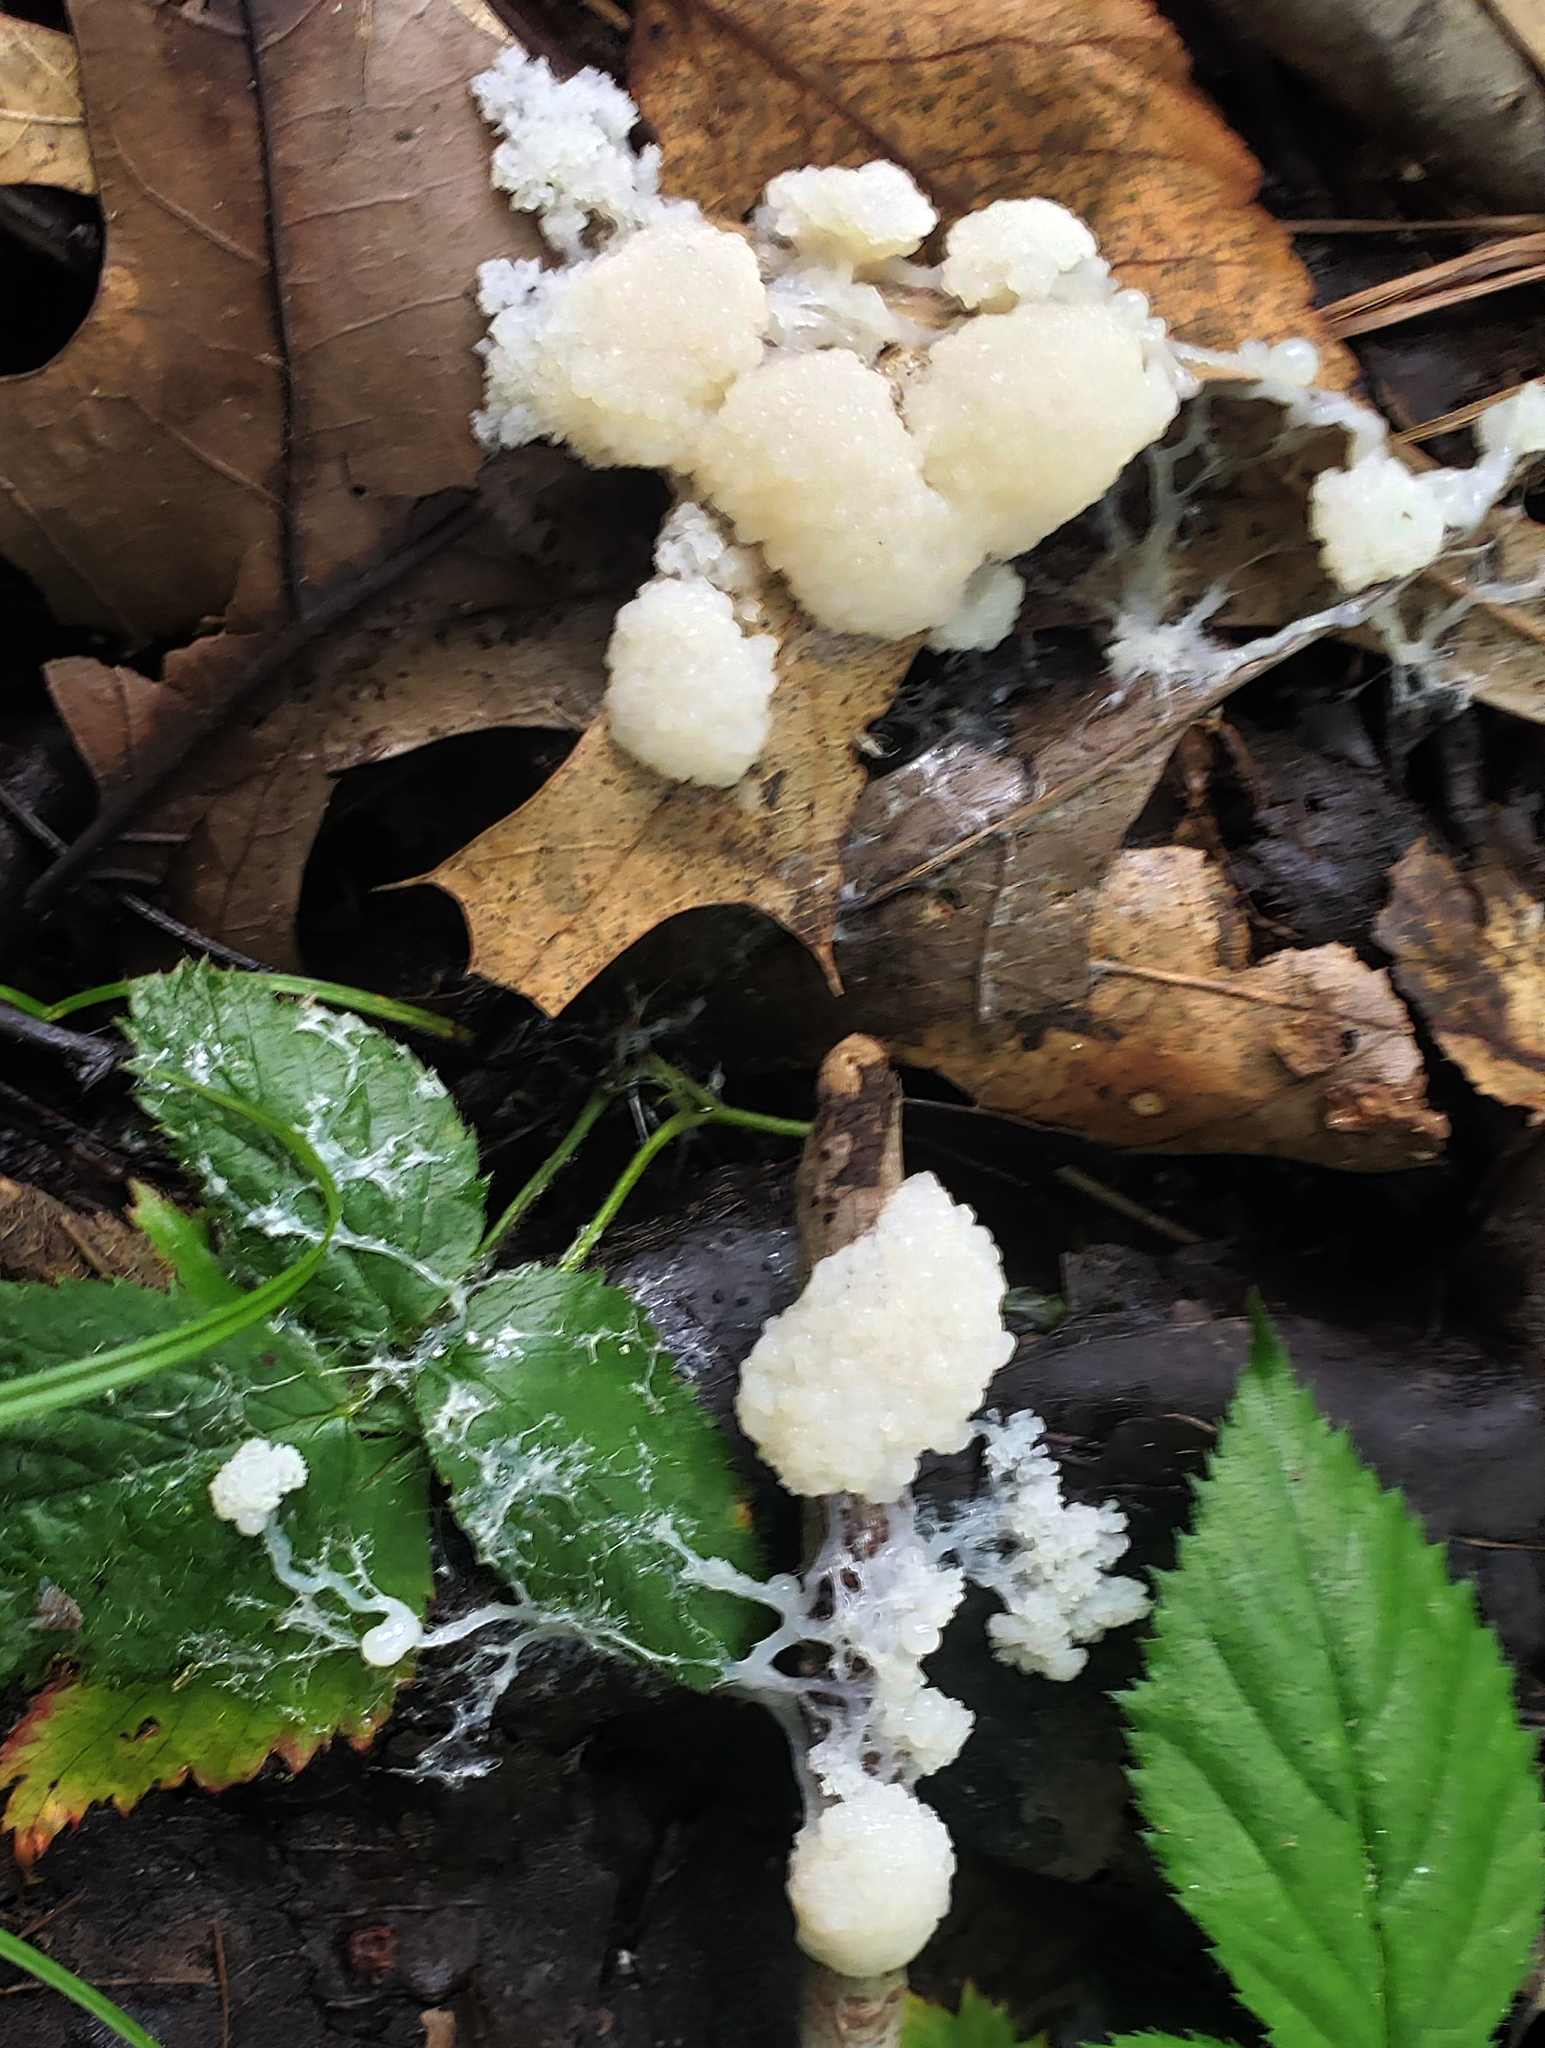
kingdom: Protozoa
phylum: Mycetozoa
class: Myxomycetes
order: Physarales
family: Physaraceae
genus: Didymium
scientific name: Didymium
